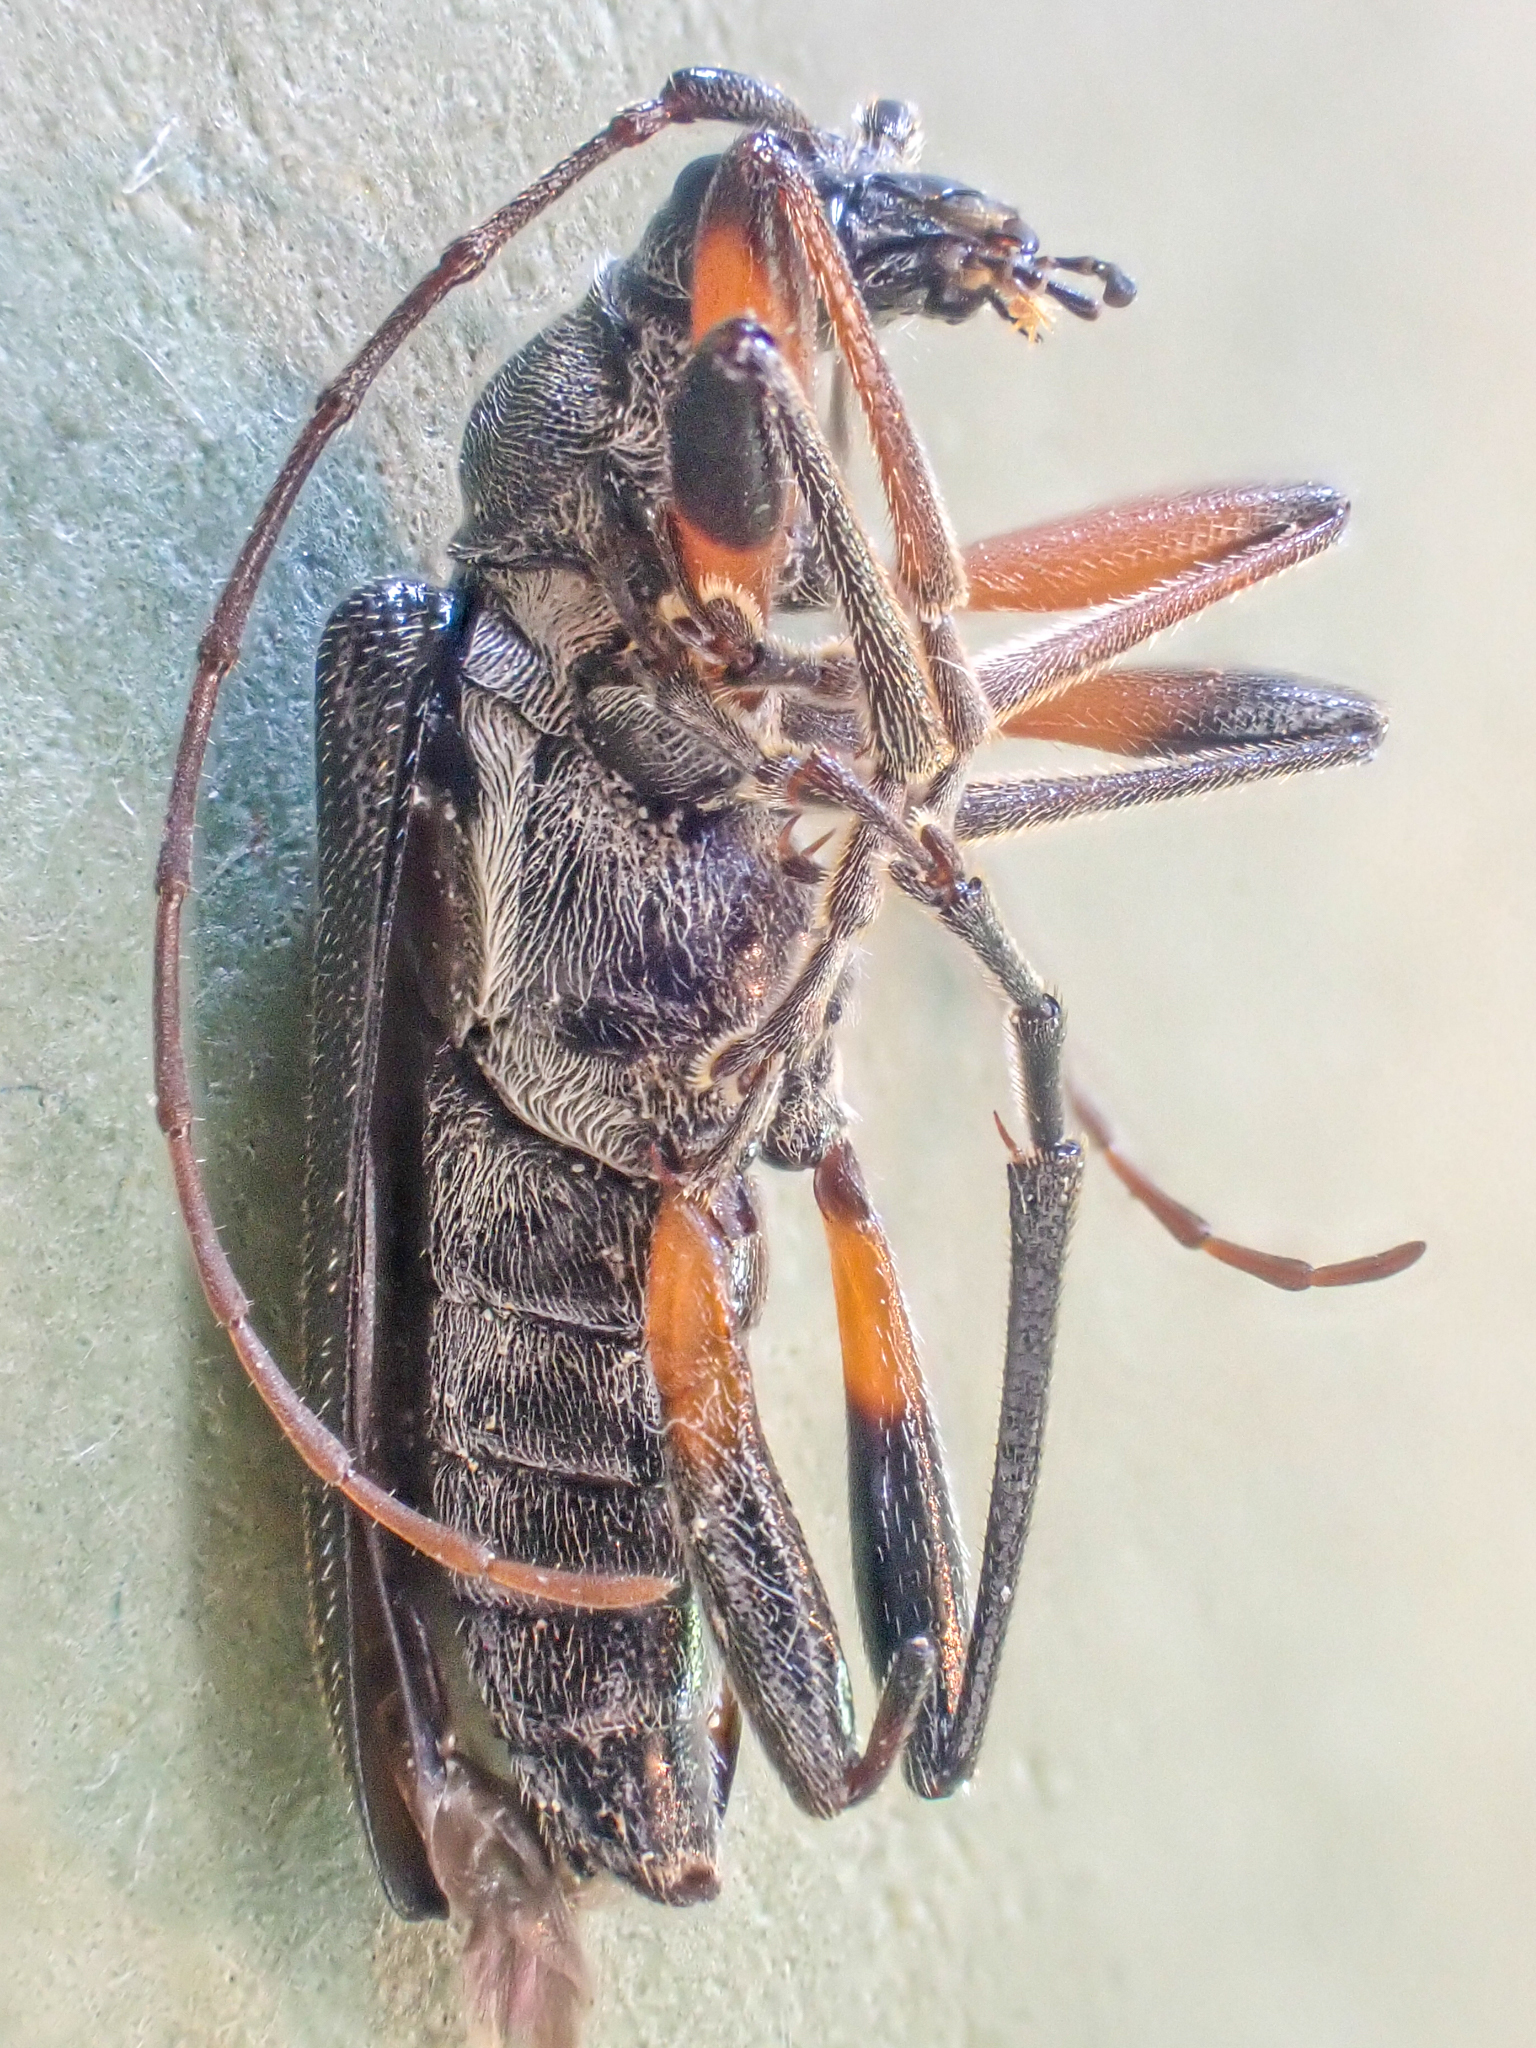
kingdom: Animalia
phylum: Arthropoda
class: Insecta
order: Coleoptera
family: Cerambycidae
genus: Cortodera
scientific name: Cortodera longicornis
